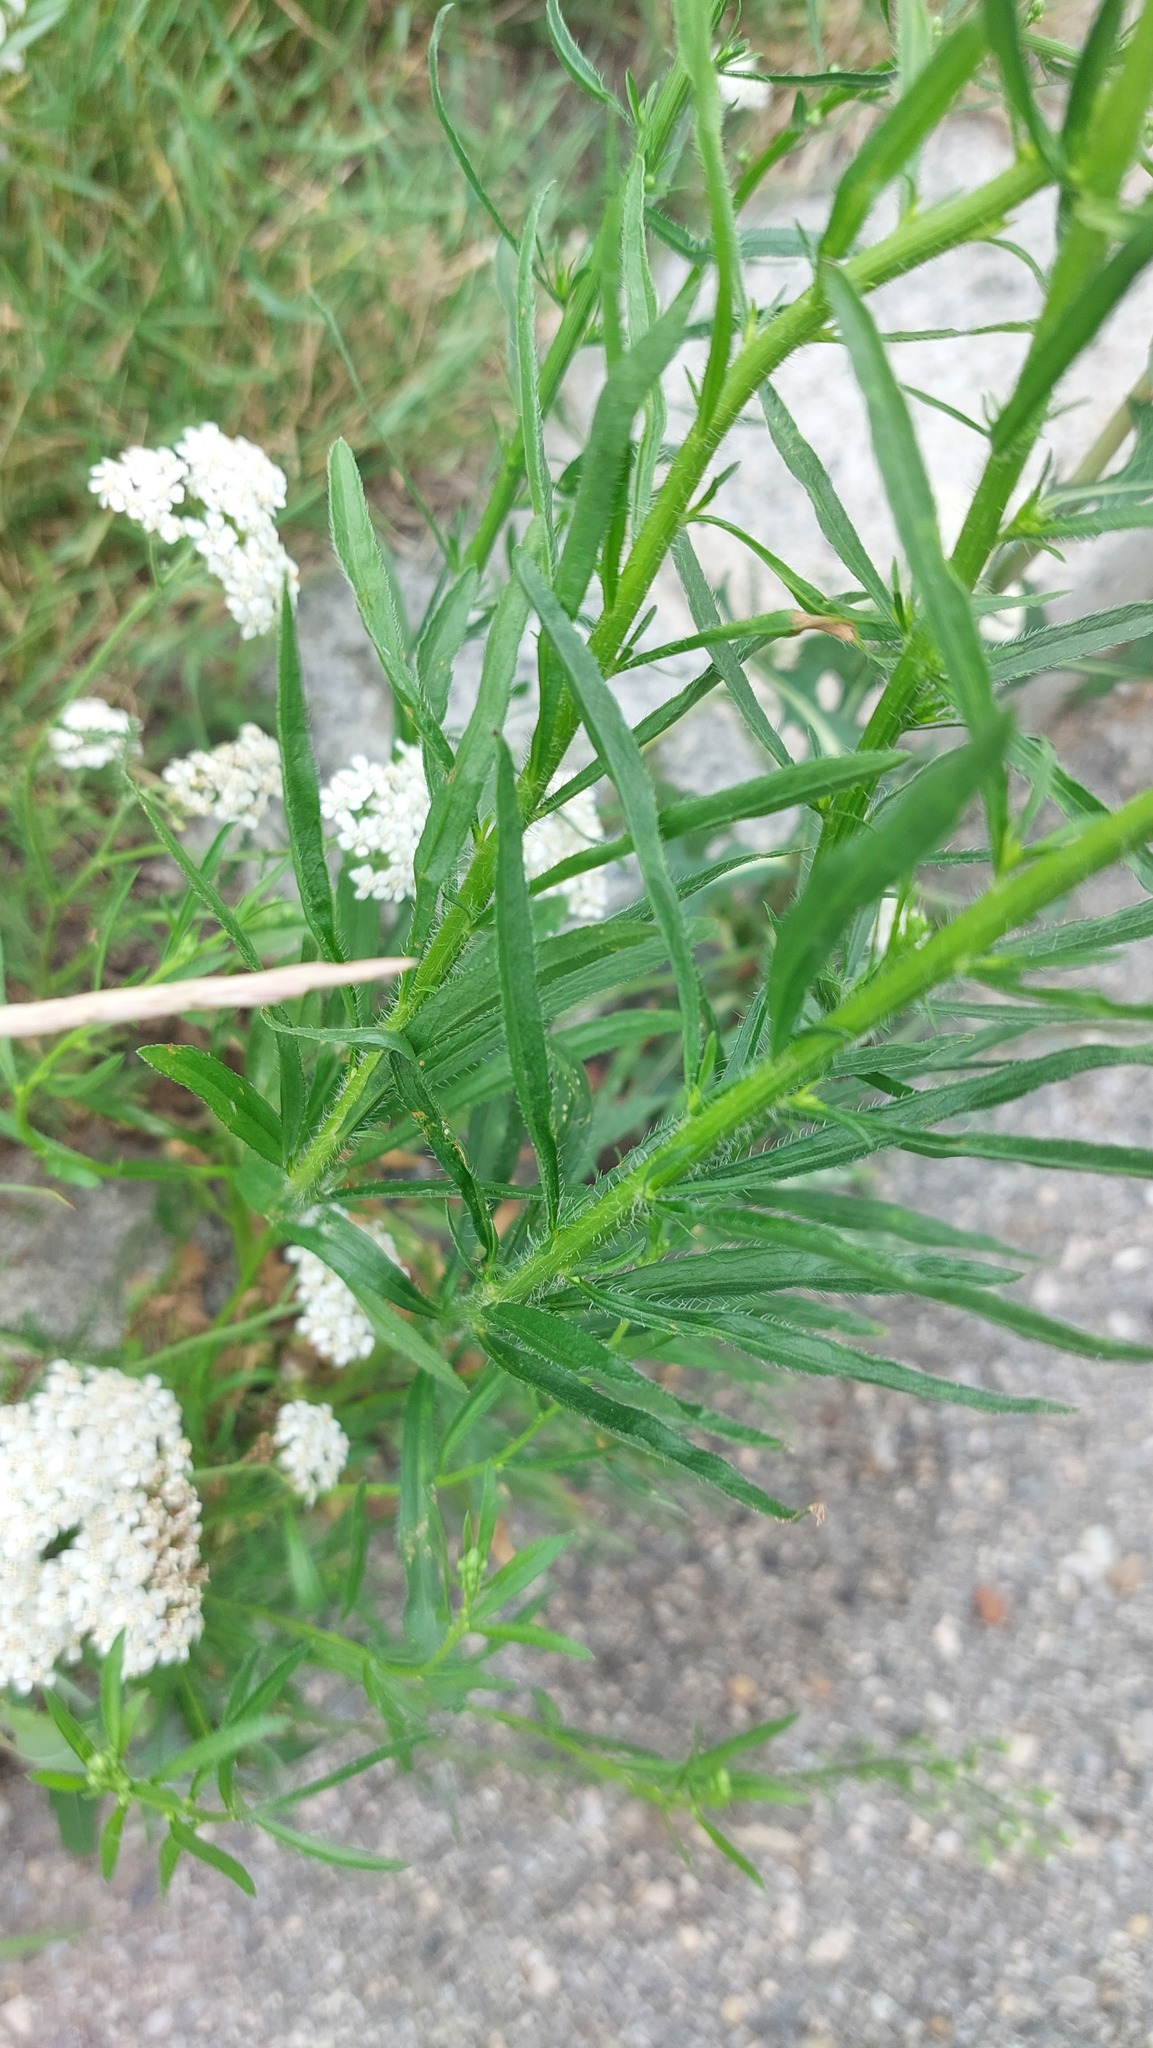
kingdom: Plantae
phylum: Tracheophyta
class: Magnoliopsida
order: Asterales
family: Asteraceae
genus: Erigeron
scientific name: Erigeron canadensis
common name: Canadian fleabane
